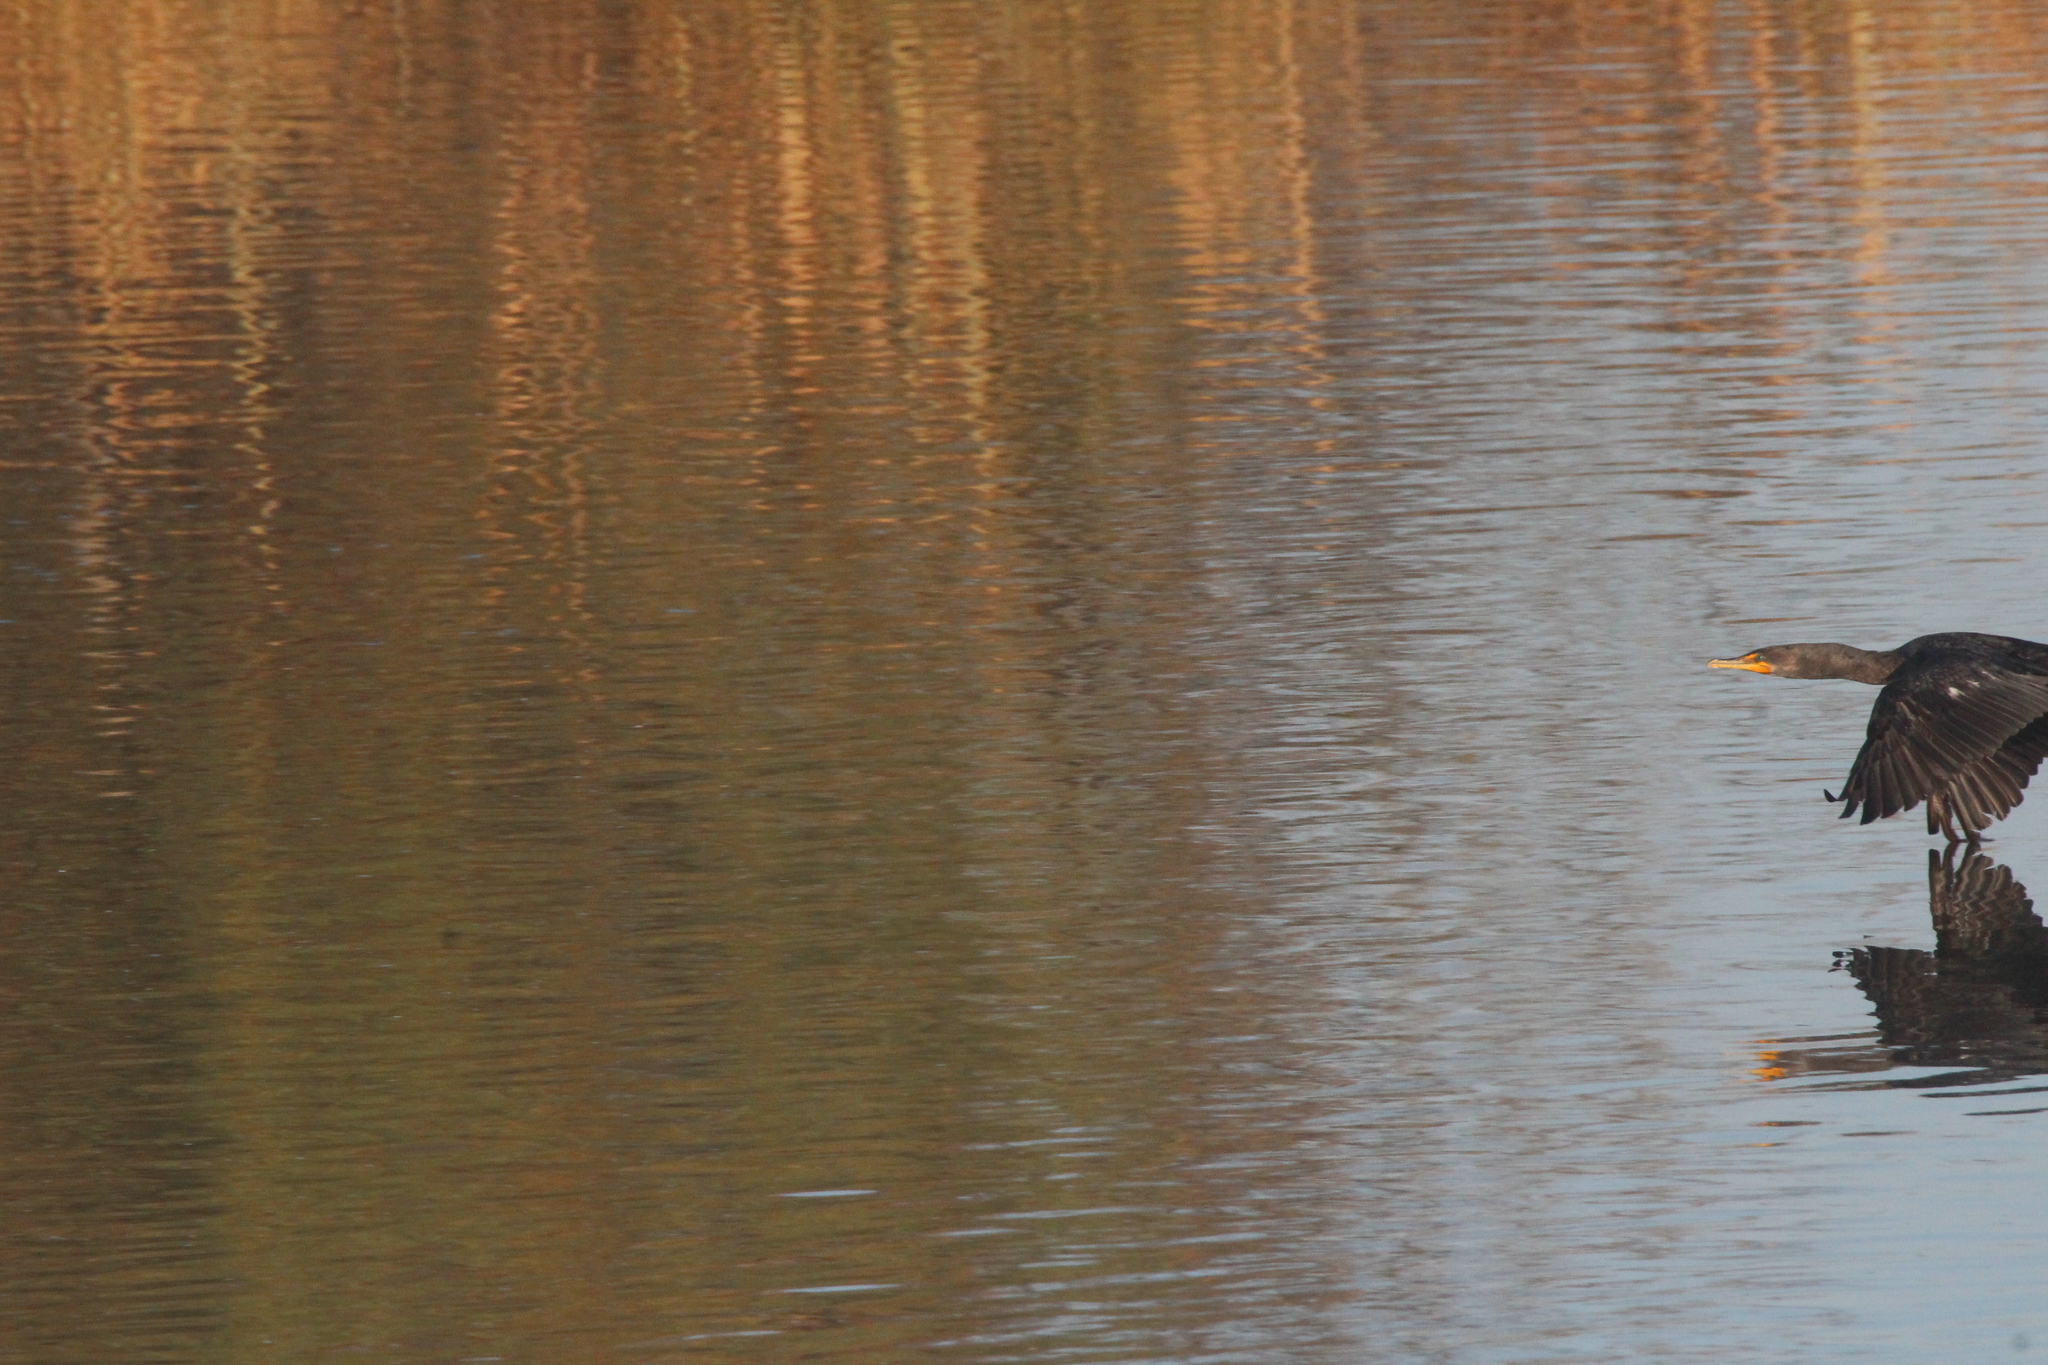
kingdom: Animalia
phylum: Chordata
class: Aves
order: Suliformes
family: Phalacrocoracidae
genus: Phalacrocorax
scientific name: Phalacrocorax auritus
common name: Double-crested cormorant
